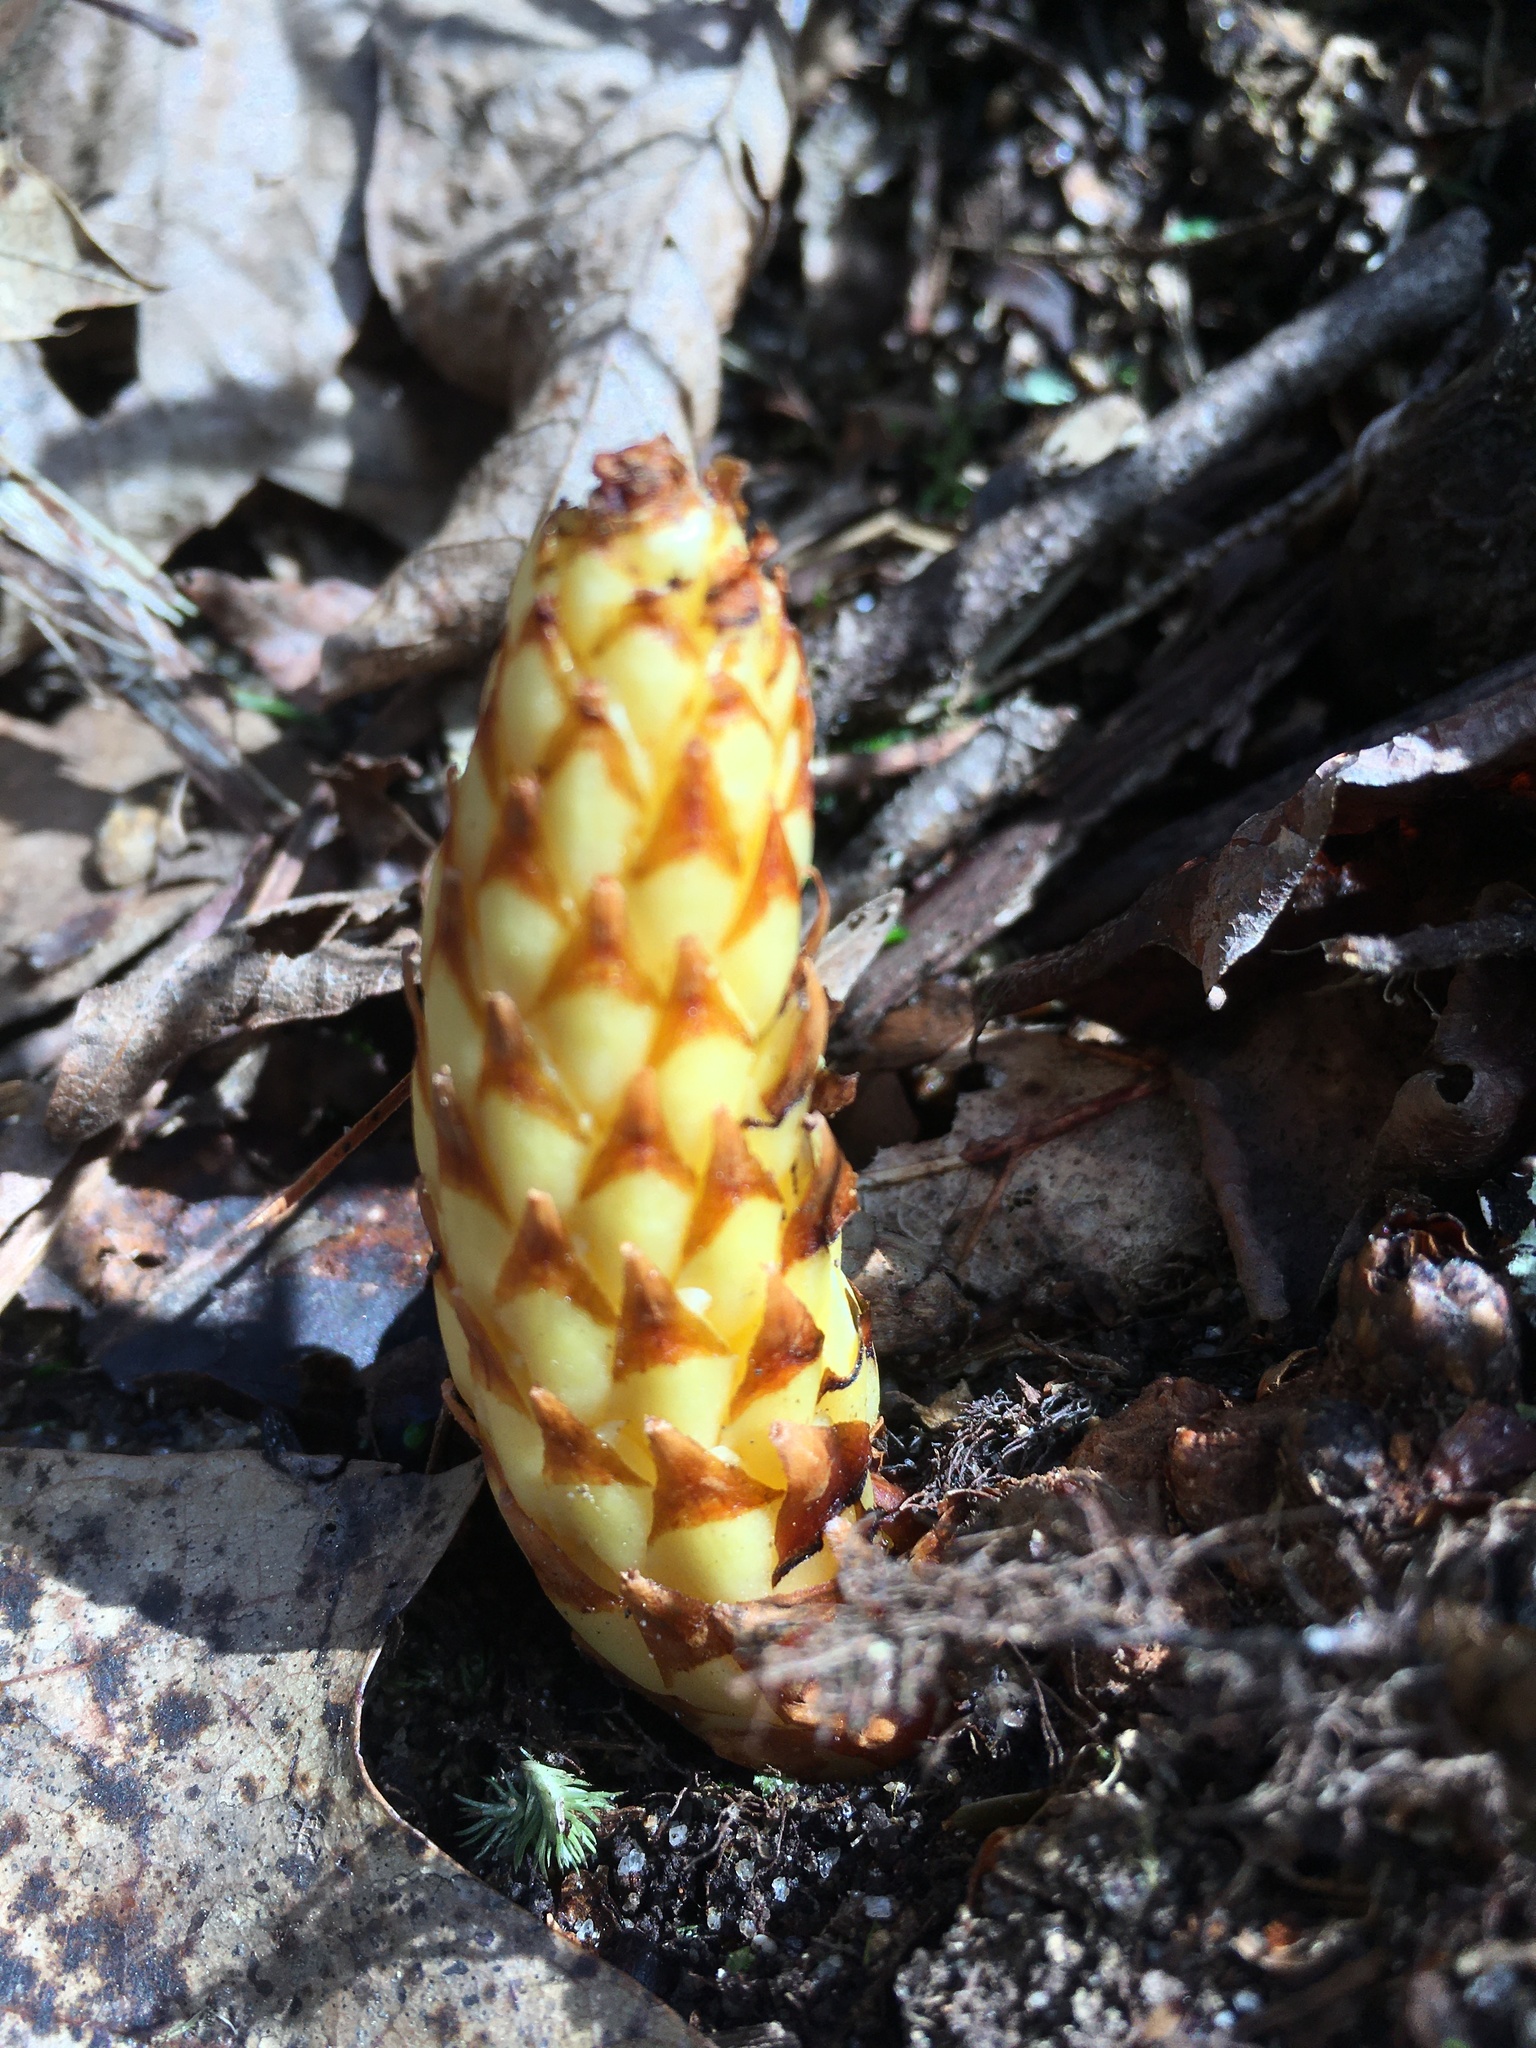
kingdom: Plantae
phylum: Tracheophyta
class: Magnoliopsida
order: Lamiales
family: Orobanchaceae
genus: Conopholis
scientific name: Conopholis americana
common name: American cancer-root
